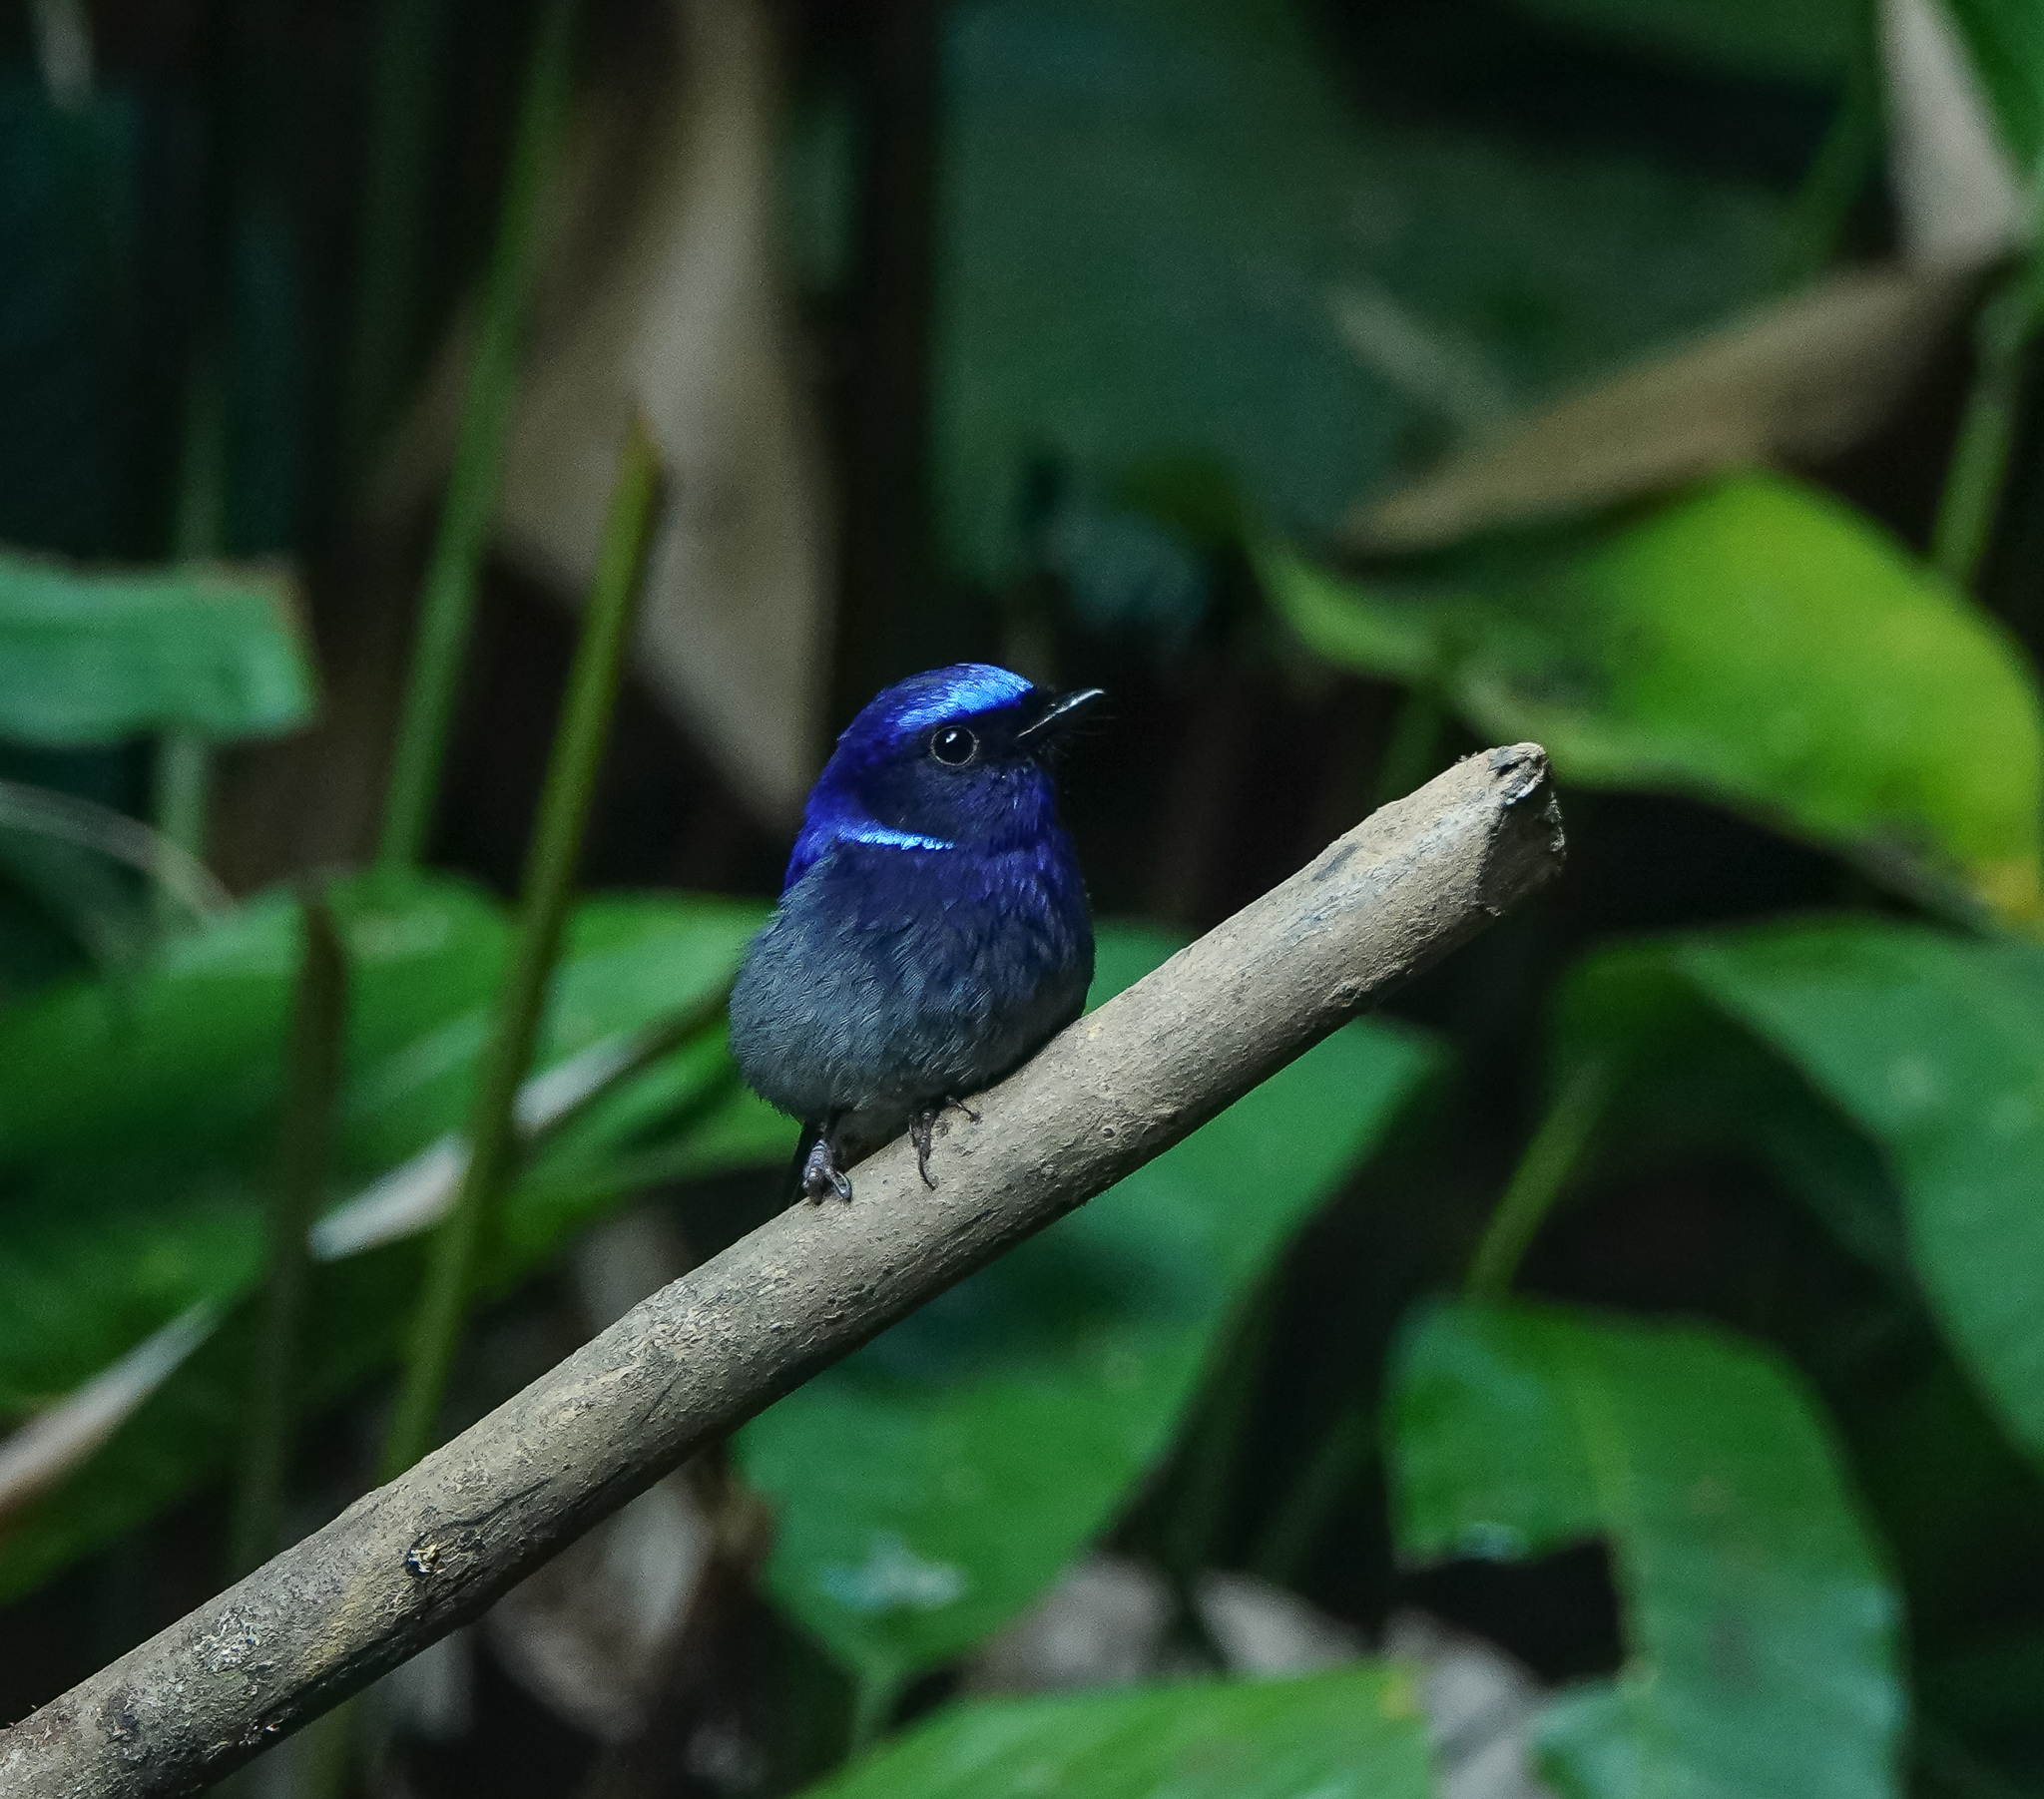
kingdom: Animalia
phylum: Chordata
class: Aves
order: Passeriformes
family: Muscicapidae
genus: Niltava
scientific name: Niltava macgrigoriae
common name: Small niltava
